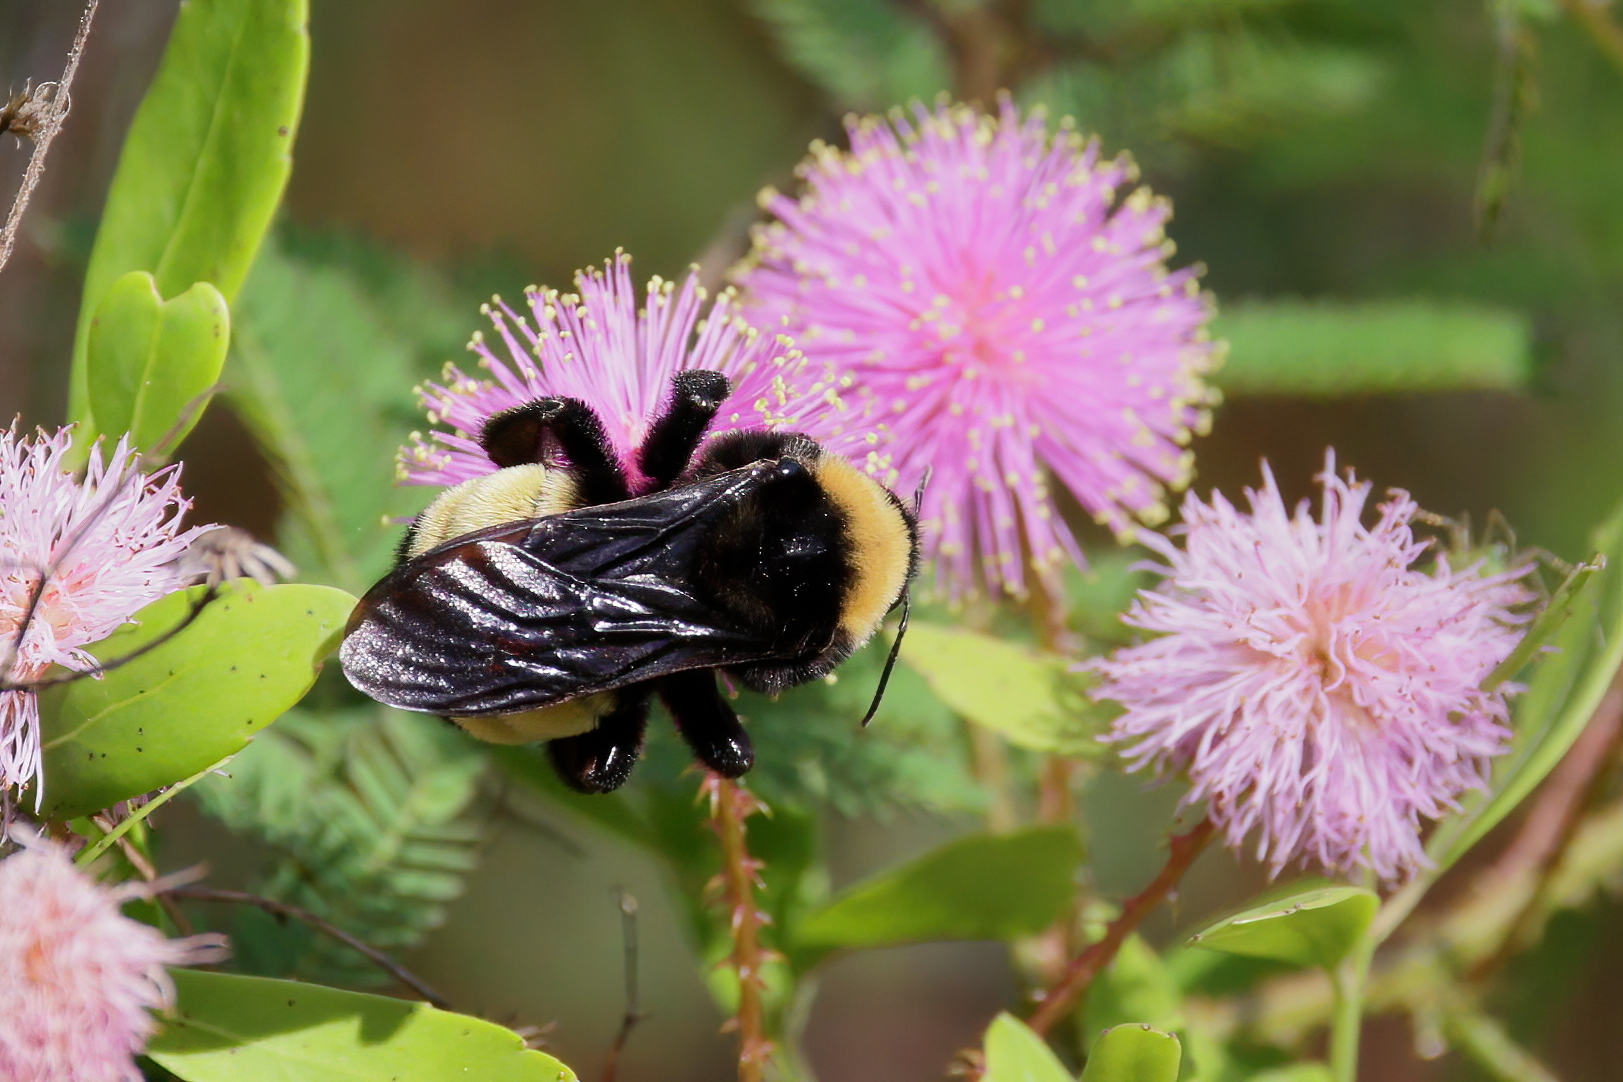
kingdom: Animalia
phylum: Arthropoda
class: Insecta
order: Hymenoptera
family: Apidae
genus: Bombus
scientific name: Bombus pensylvanicus
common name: Bumble bee
